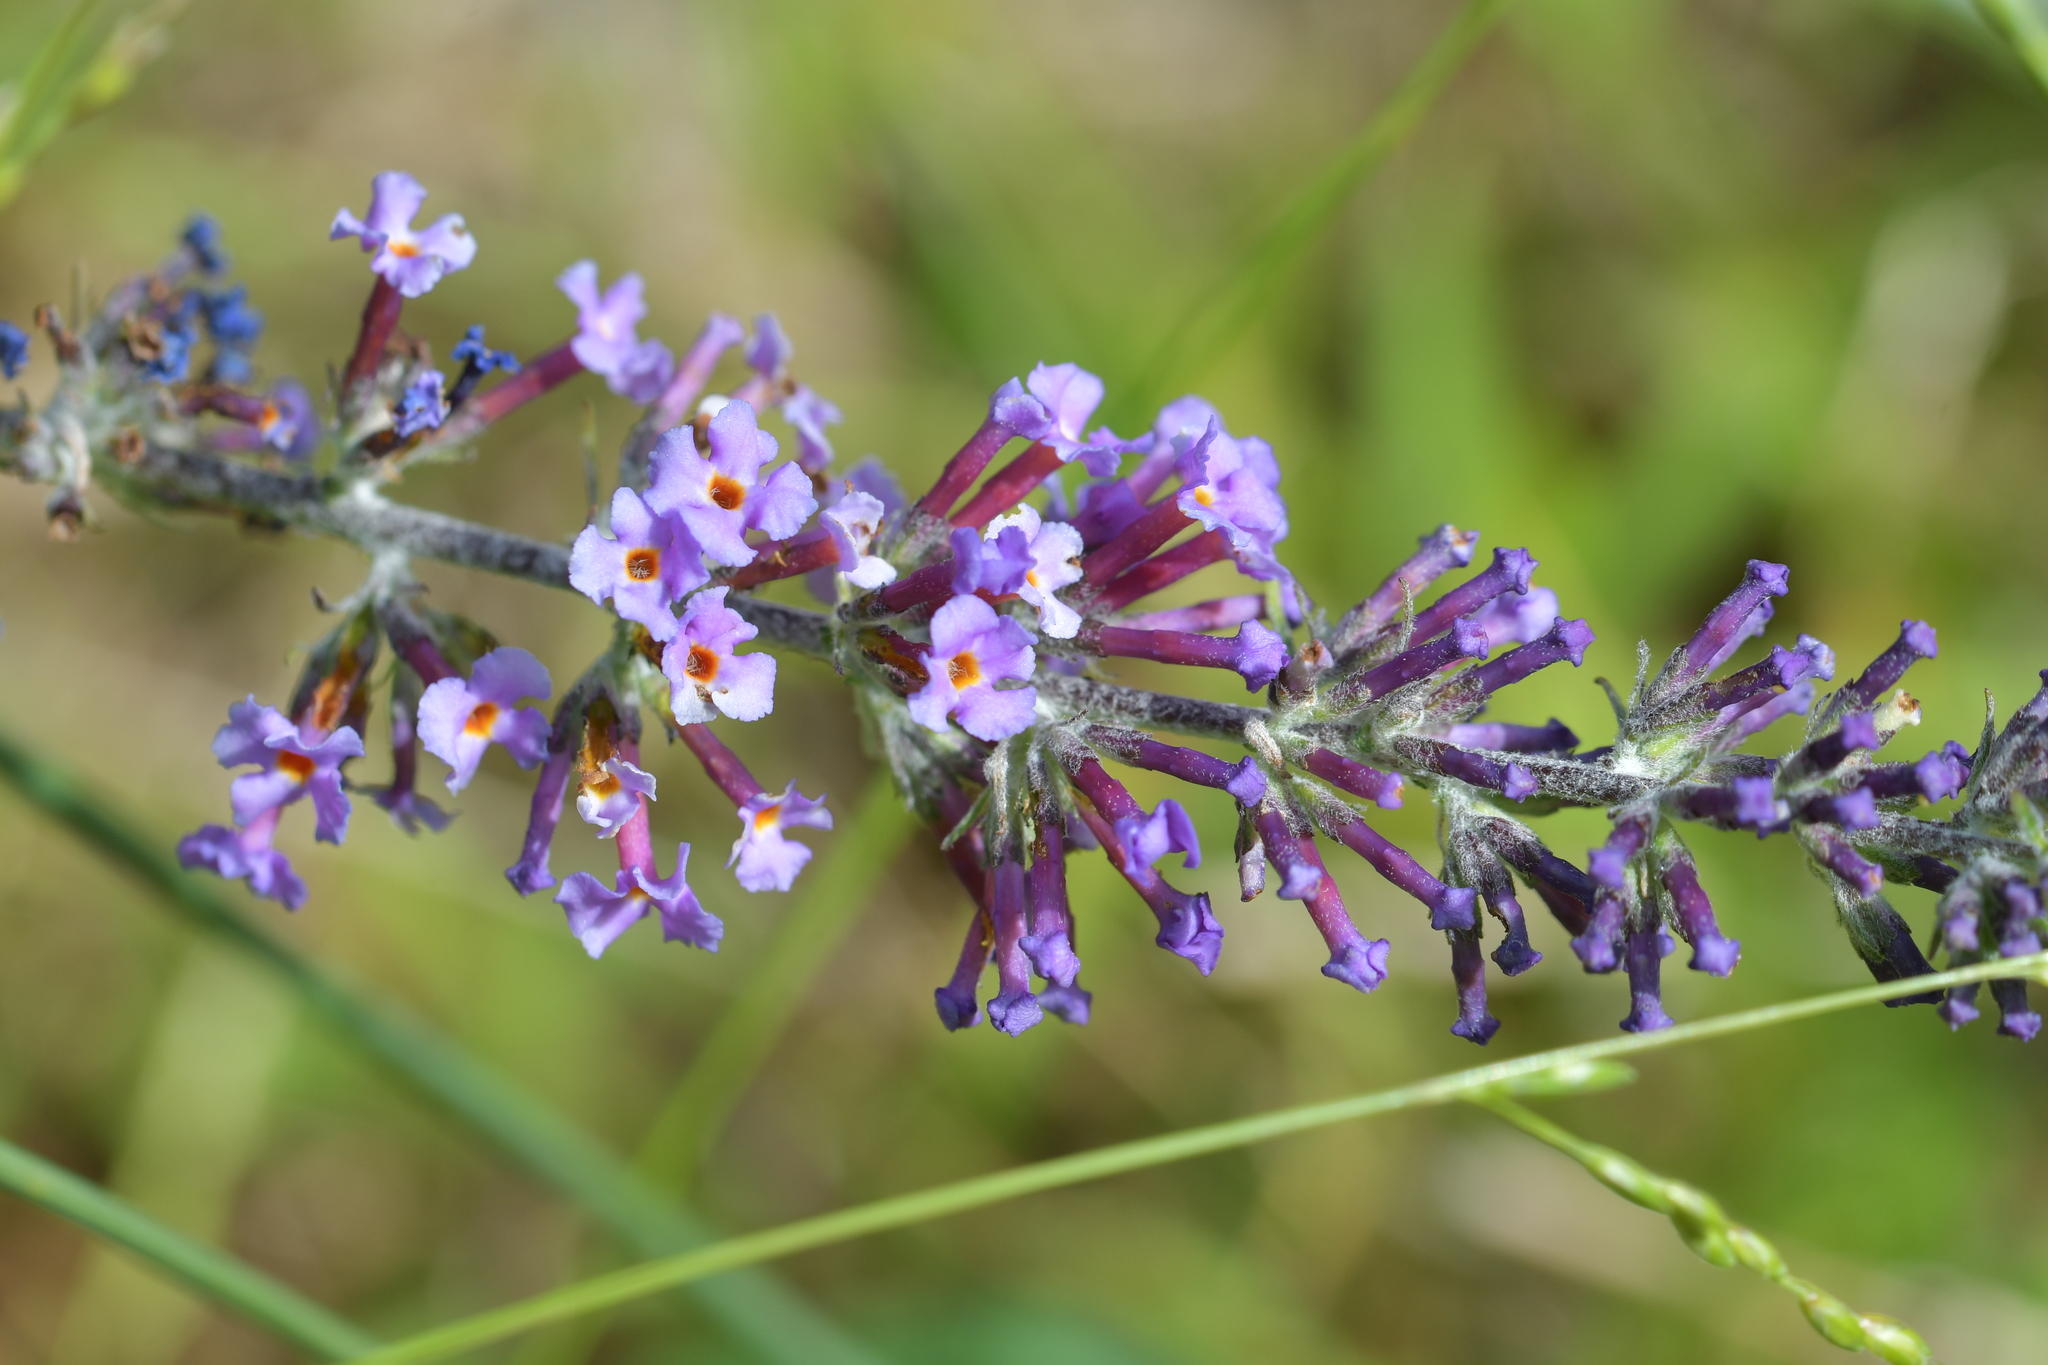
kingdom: Plantae
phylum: Tracheophyta
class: Magnoliopsida
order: Lamiales
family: Scrophulariaceae
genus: Buddleja
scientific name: Buddleja davidii
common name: Butterfly-bush
